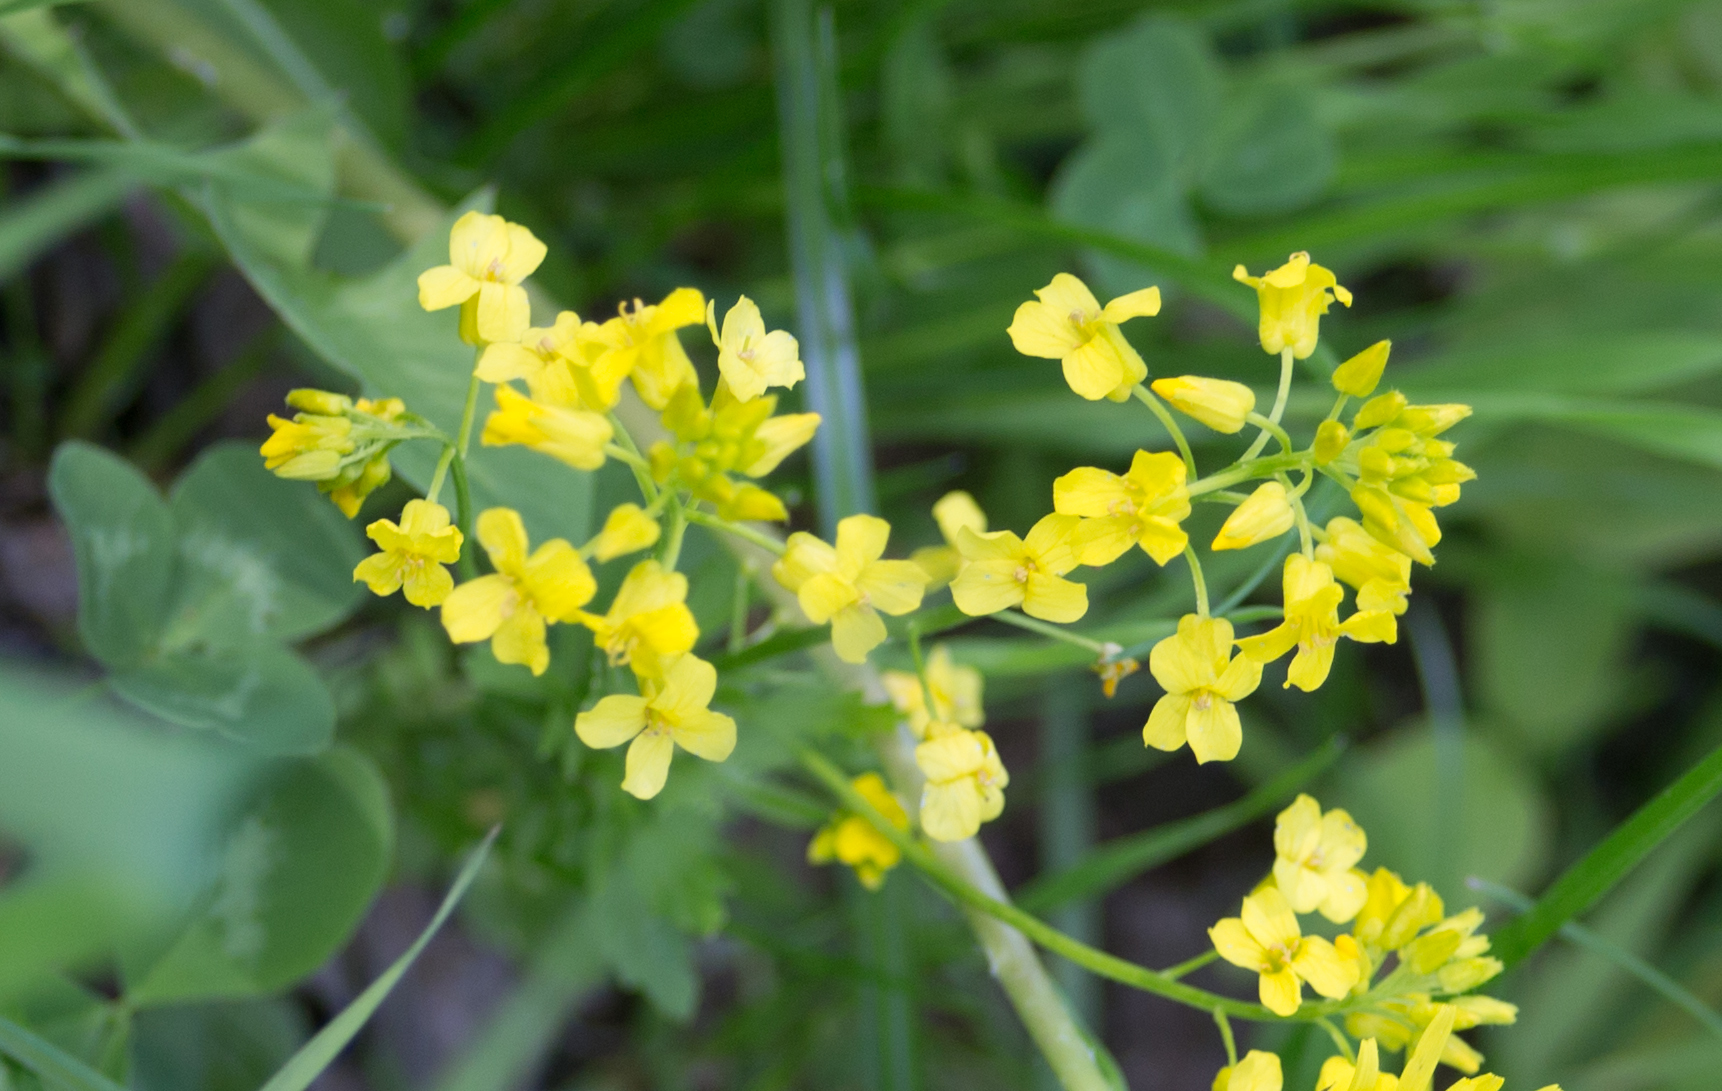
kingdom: Plantae
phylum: Tracheophyta
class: Magnoliopsida
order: Brassicales
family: Brassicaceae
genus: Barbarea
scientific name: Barbarea vulgaris
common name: Cressy-greens
